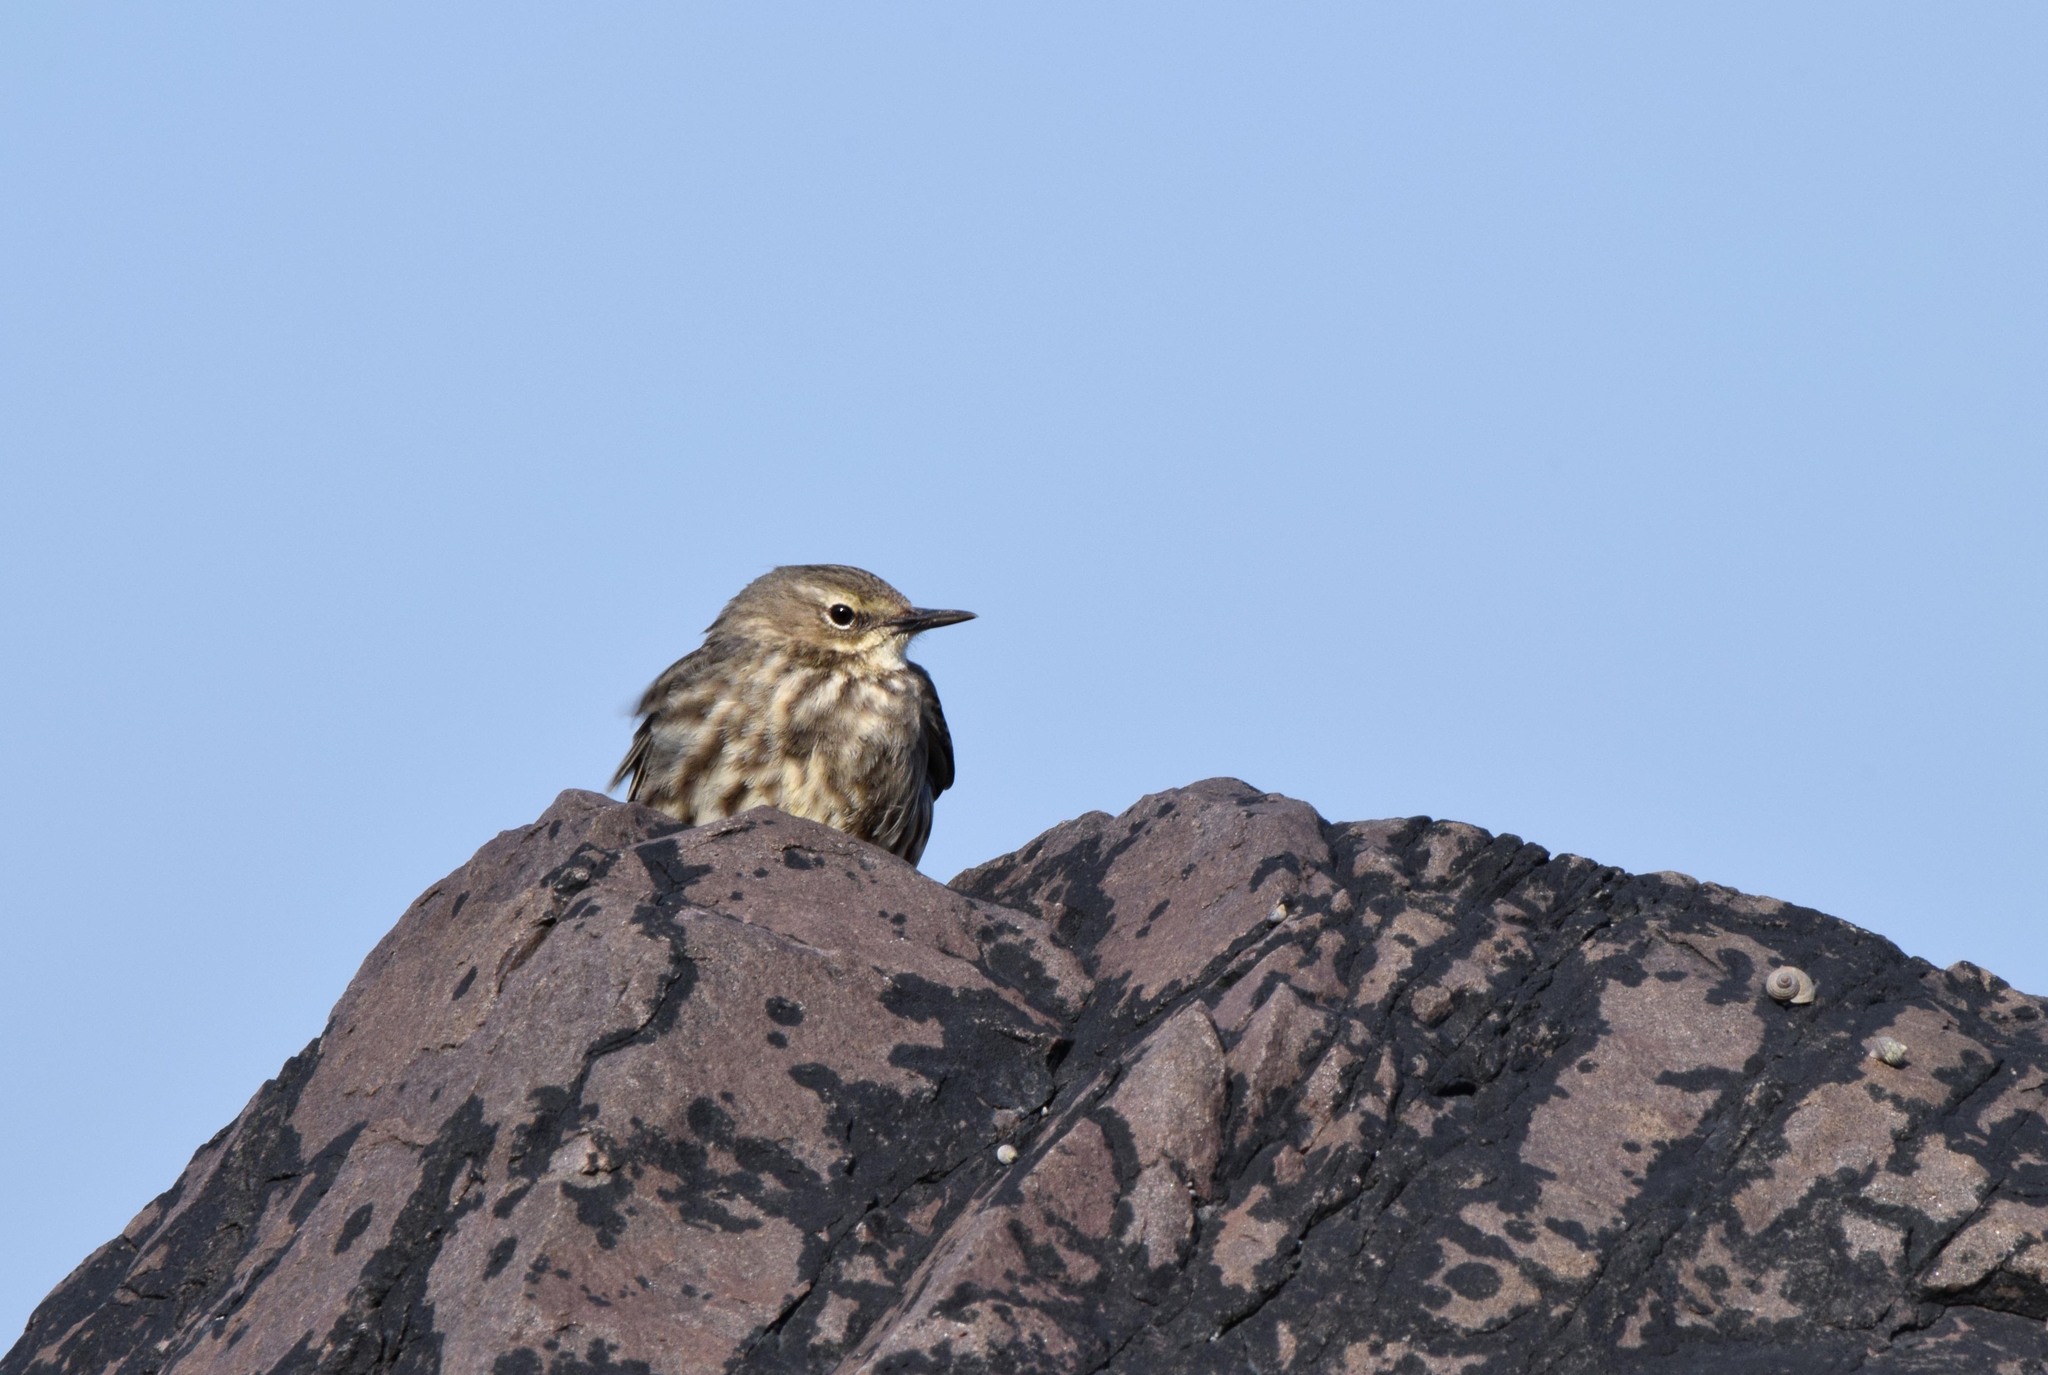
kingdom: Animalia
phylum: Chordata
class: Aves
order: Passeriformes
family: Motacillidae
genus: Anthus
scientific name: Anthus petrosus
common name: Eurasian rock pipit
